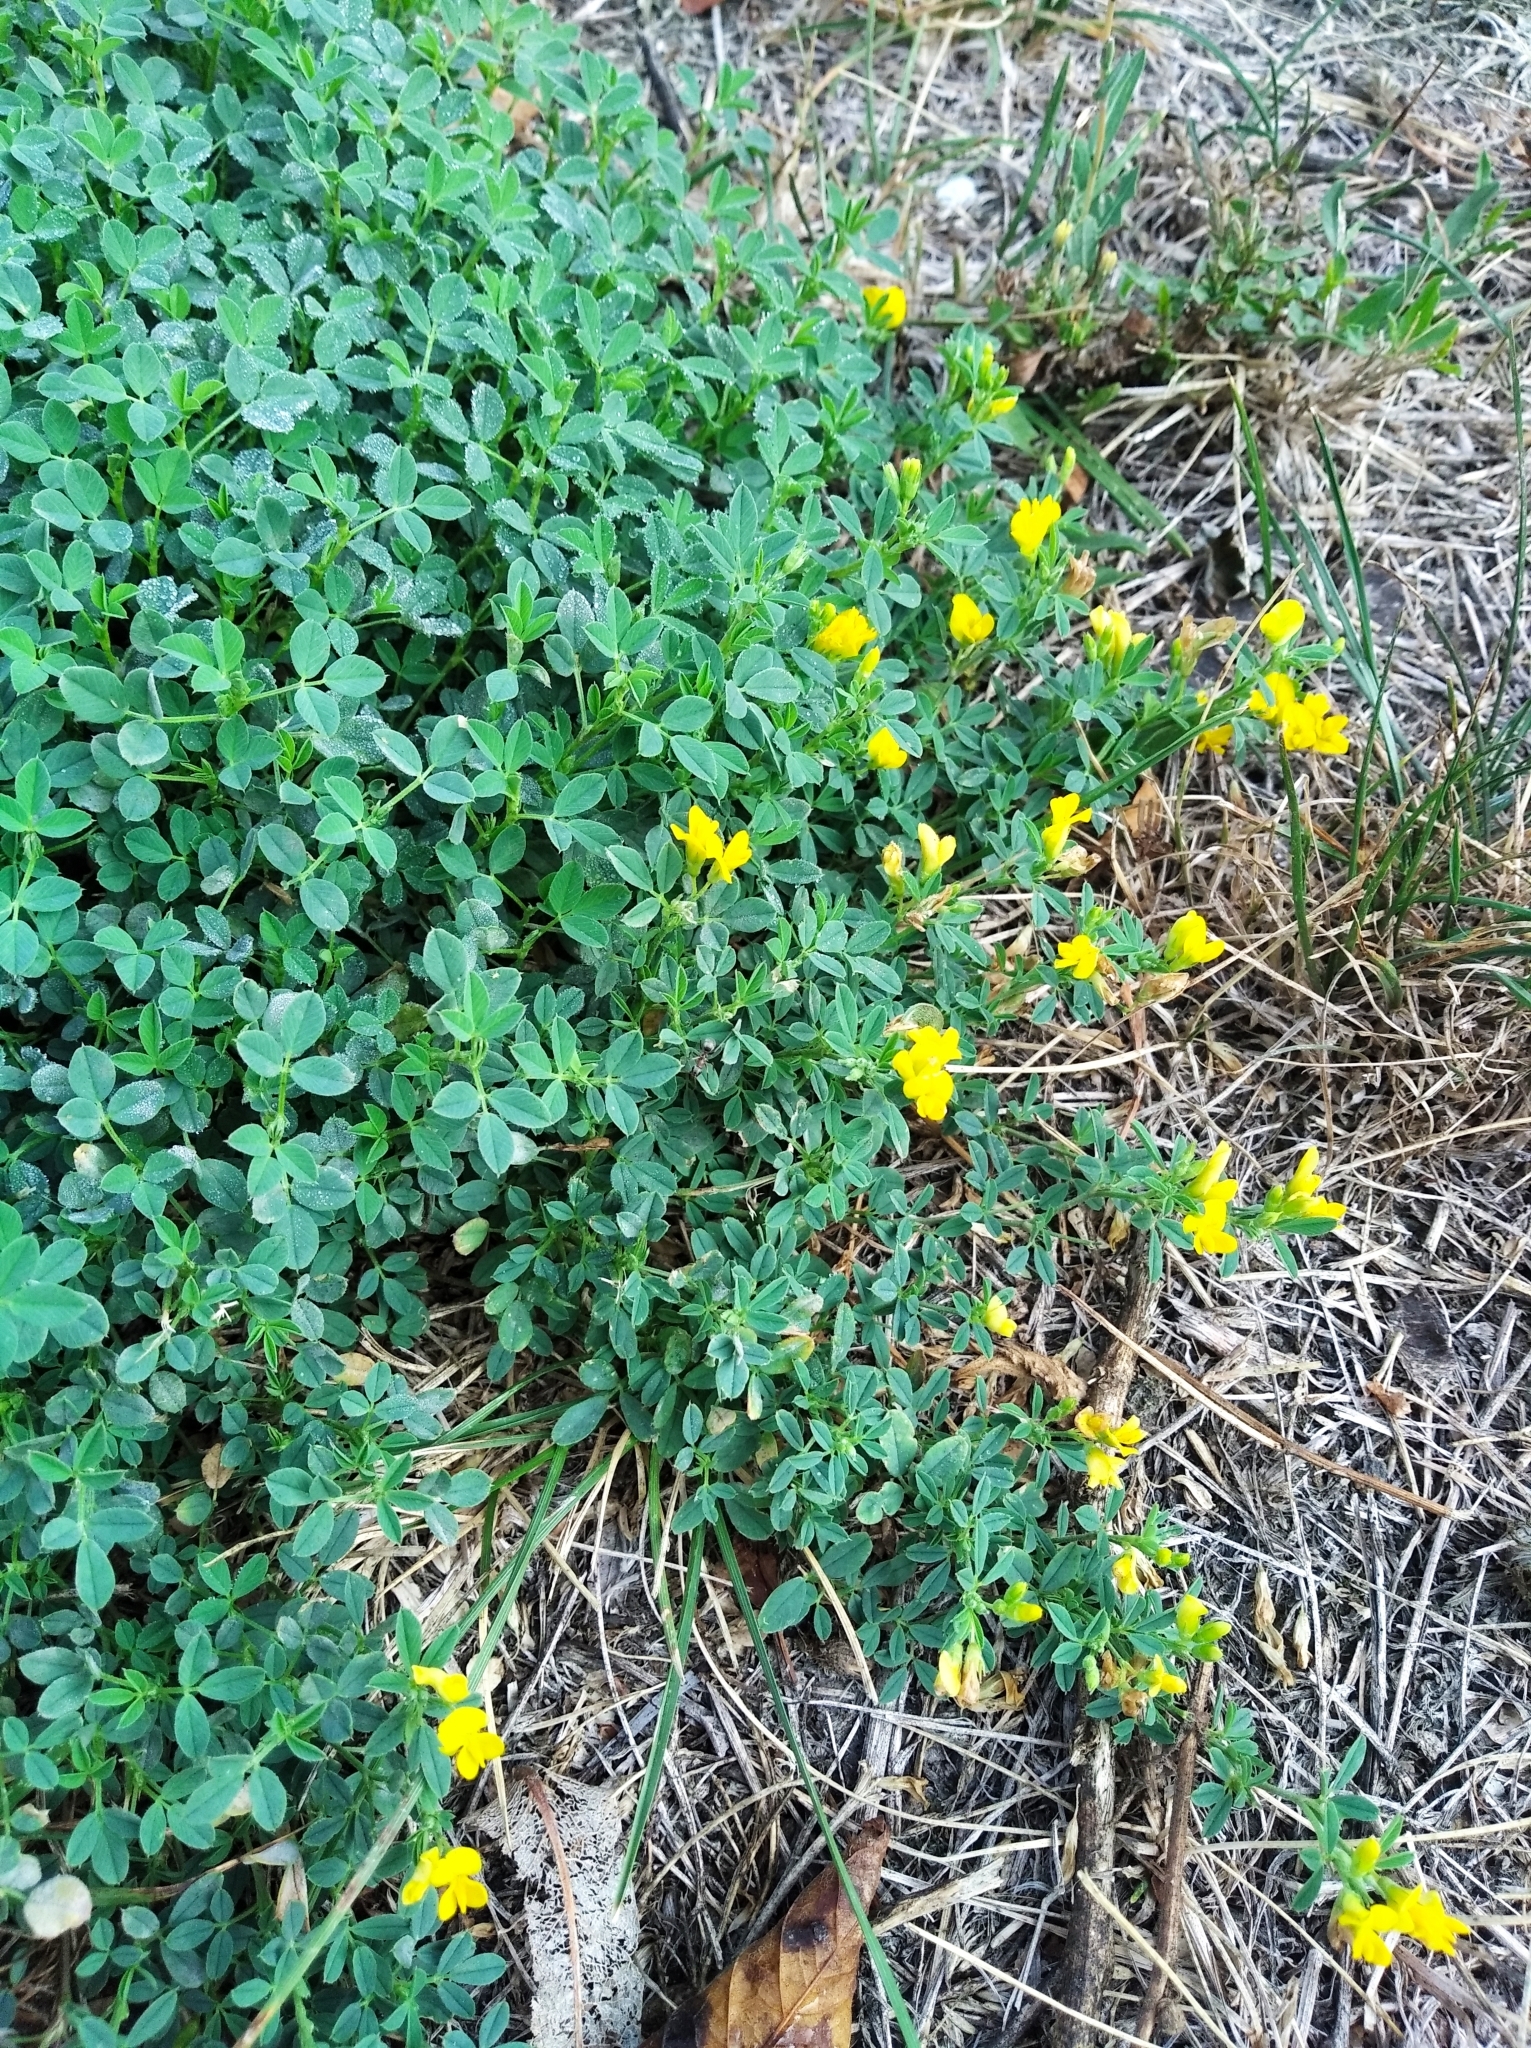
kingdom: Plantae
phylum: Tracheophyta
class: Magnoliopsida
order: Fabales
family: Fabaceae
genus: Medicago
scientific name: Medicago falcata
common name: Sickle medick
